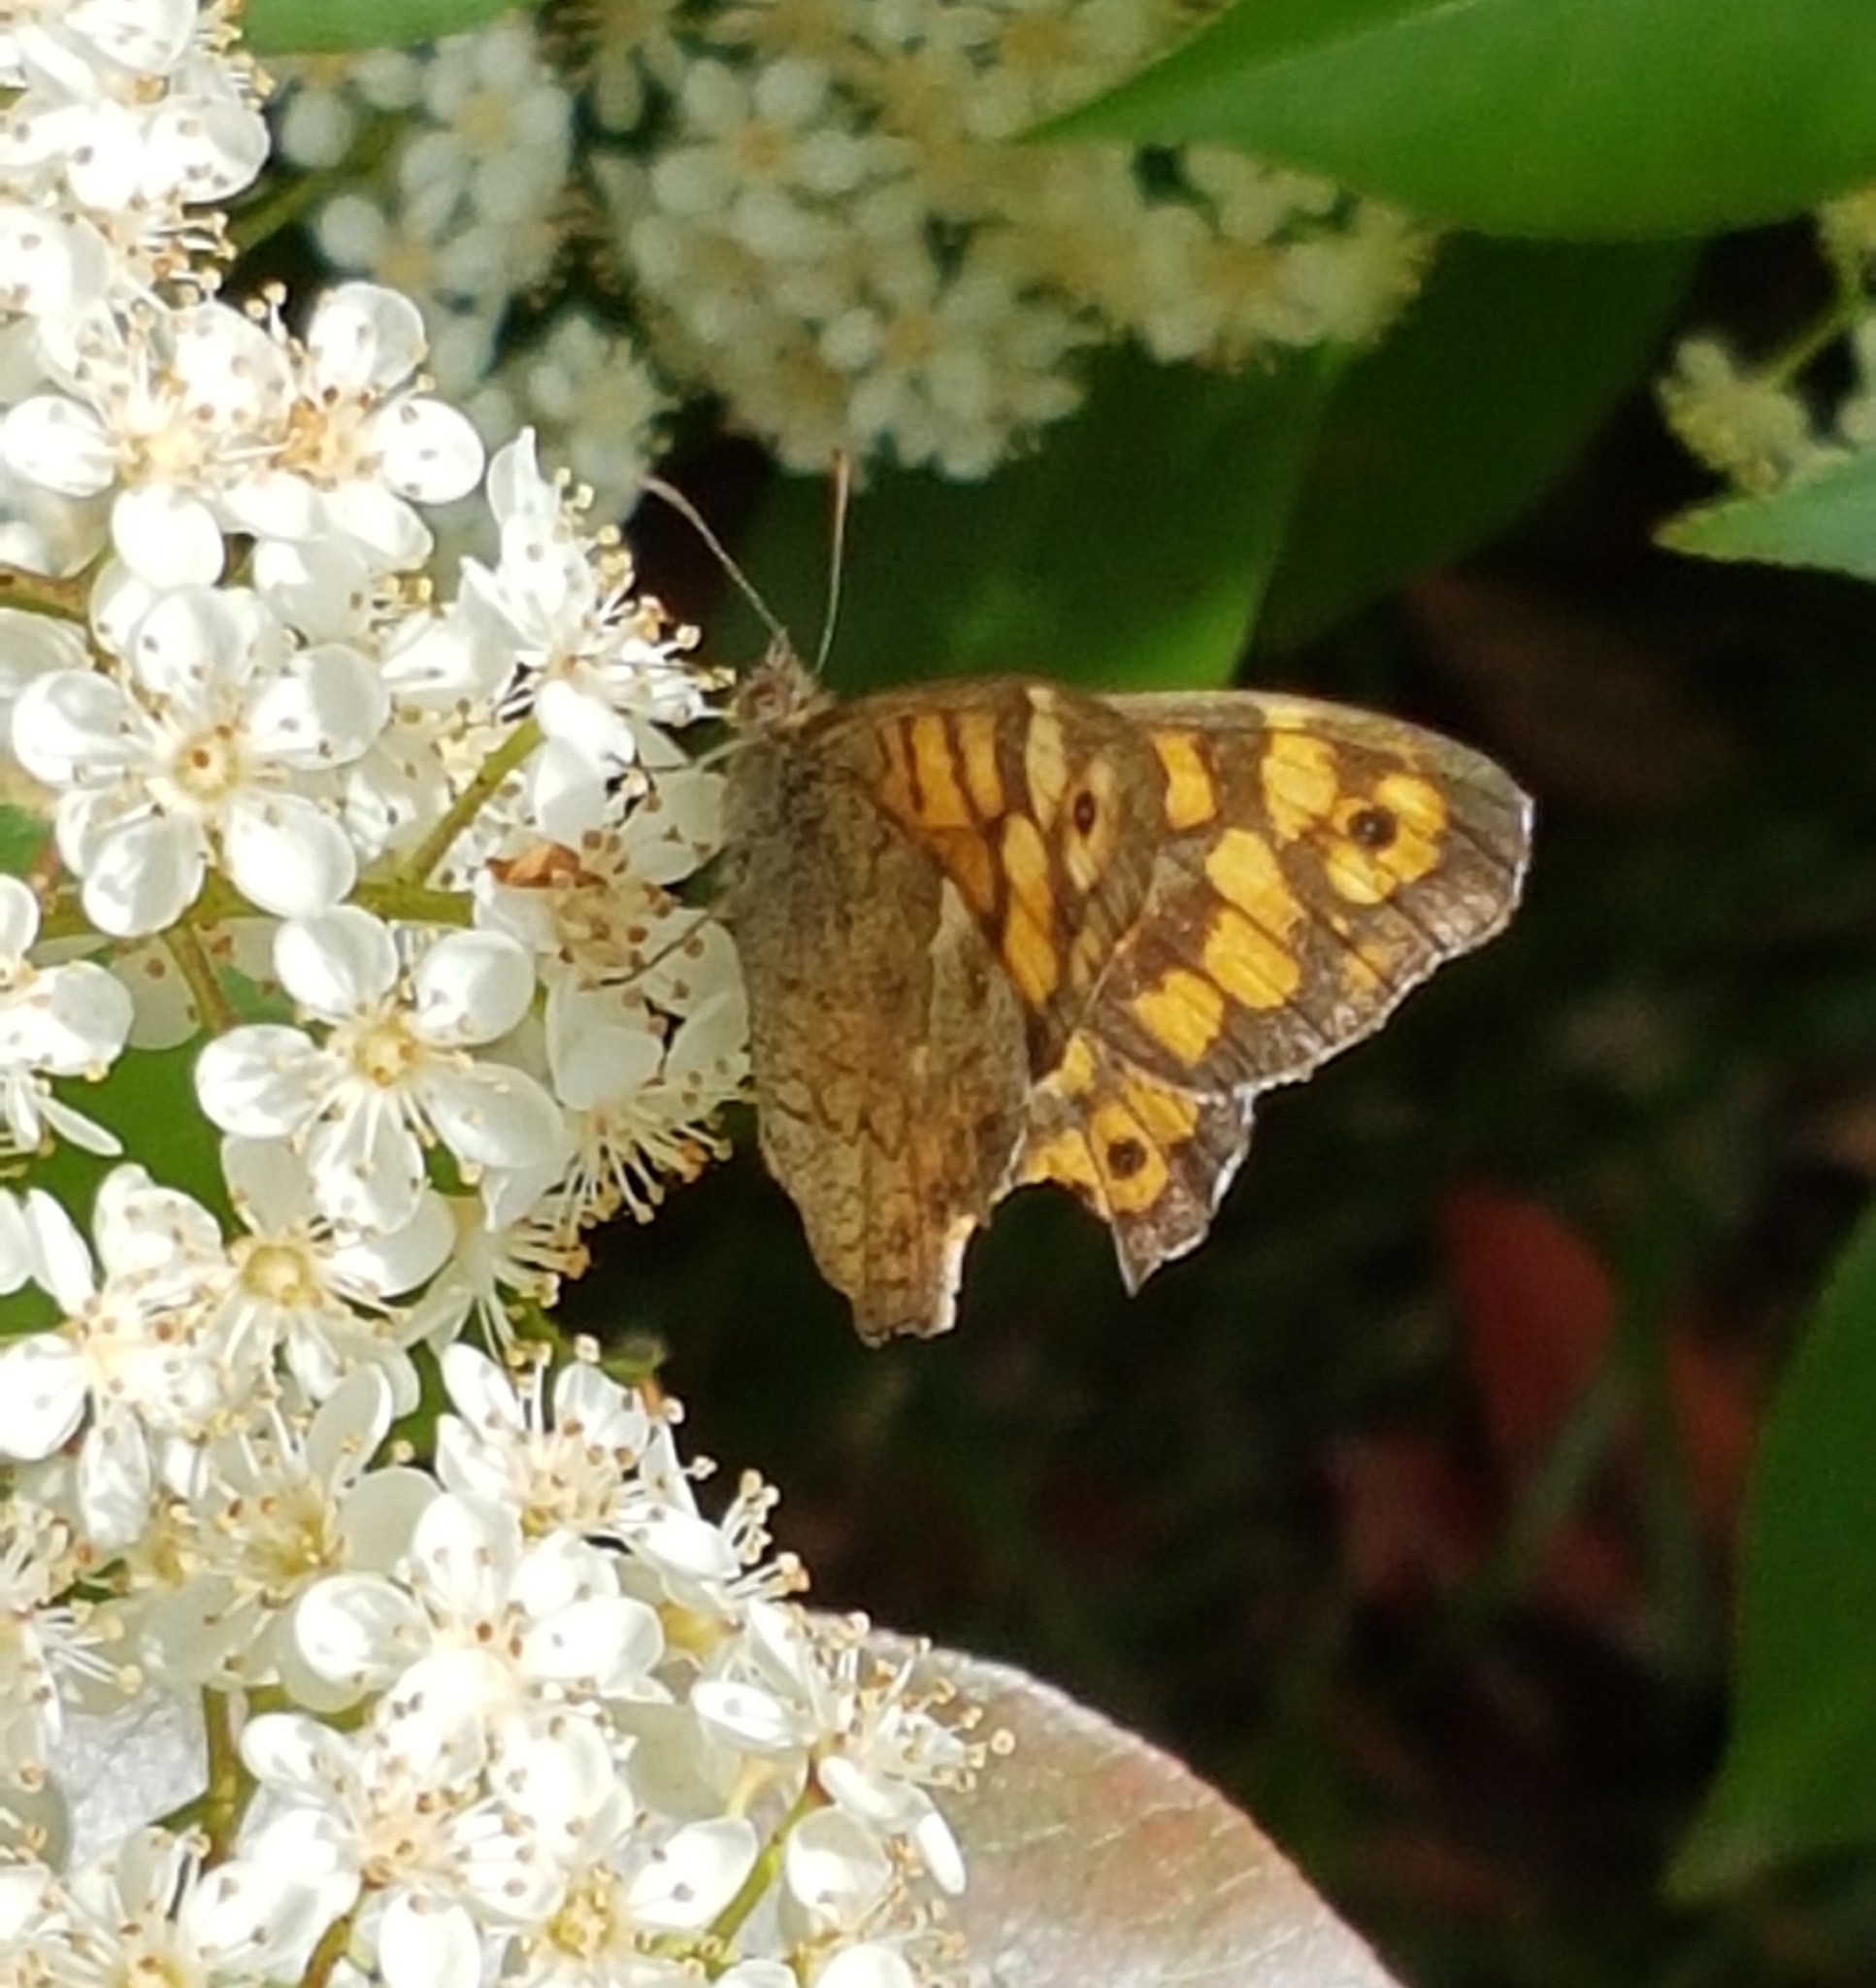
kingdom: Animalia
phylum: Arthropoda
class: Insecta
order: Lepidoptera
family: Nymphalidae
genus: Pararge
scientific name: Pararge aegeria
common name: Speckled wood
